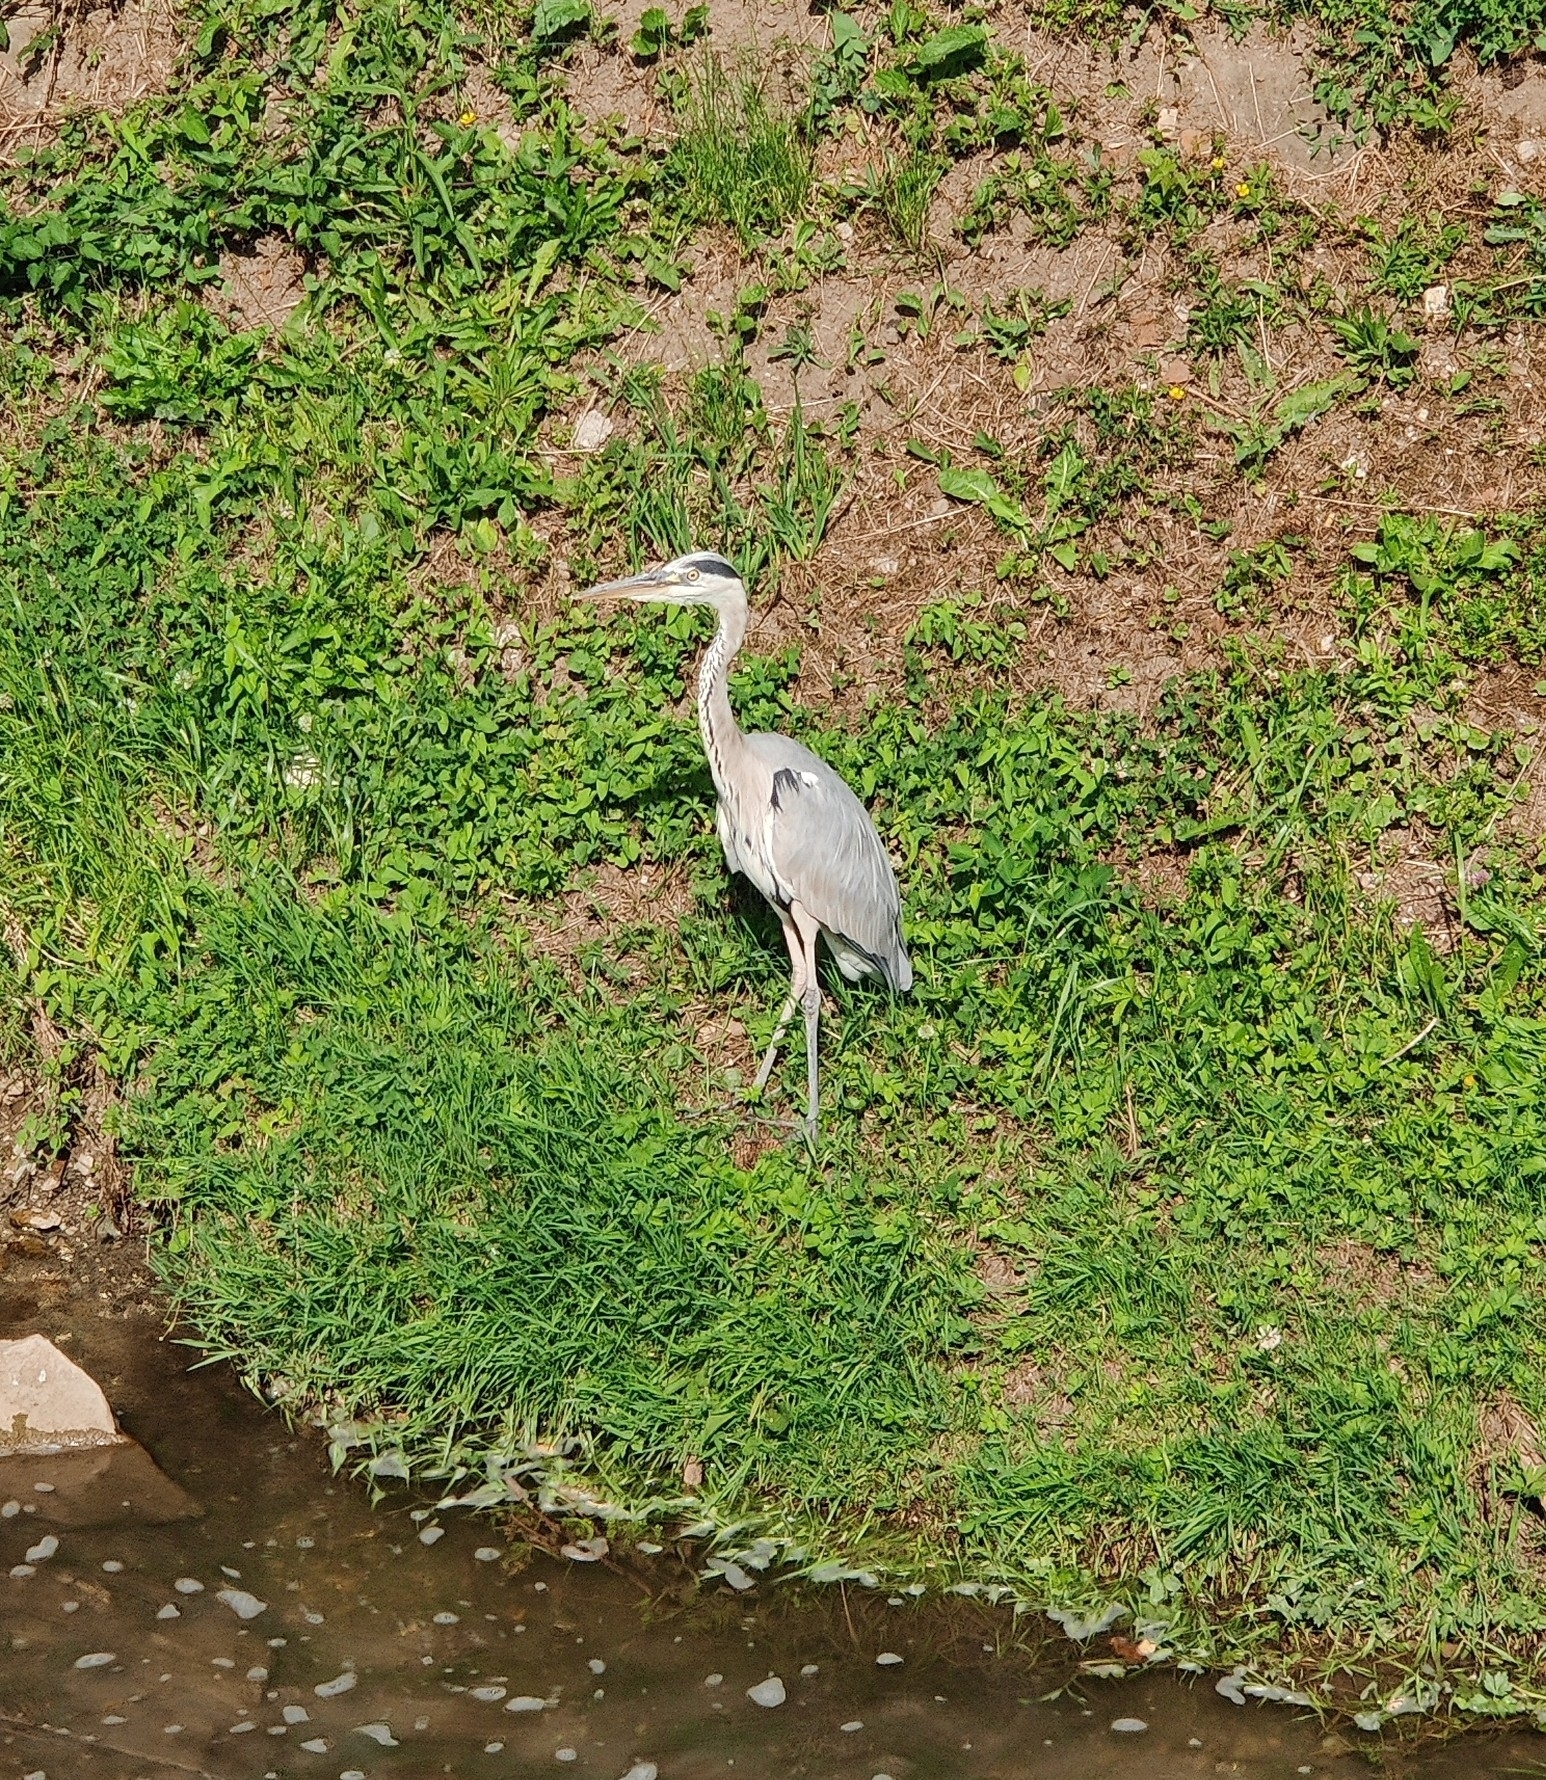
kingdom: Animalia
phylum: Chordata
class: Aves
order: Pelecaniformes
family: Ardeidae
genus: Ardea
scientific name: Ardea cinerea
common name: Grey heron
